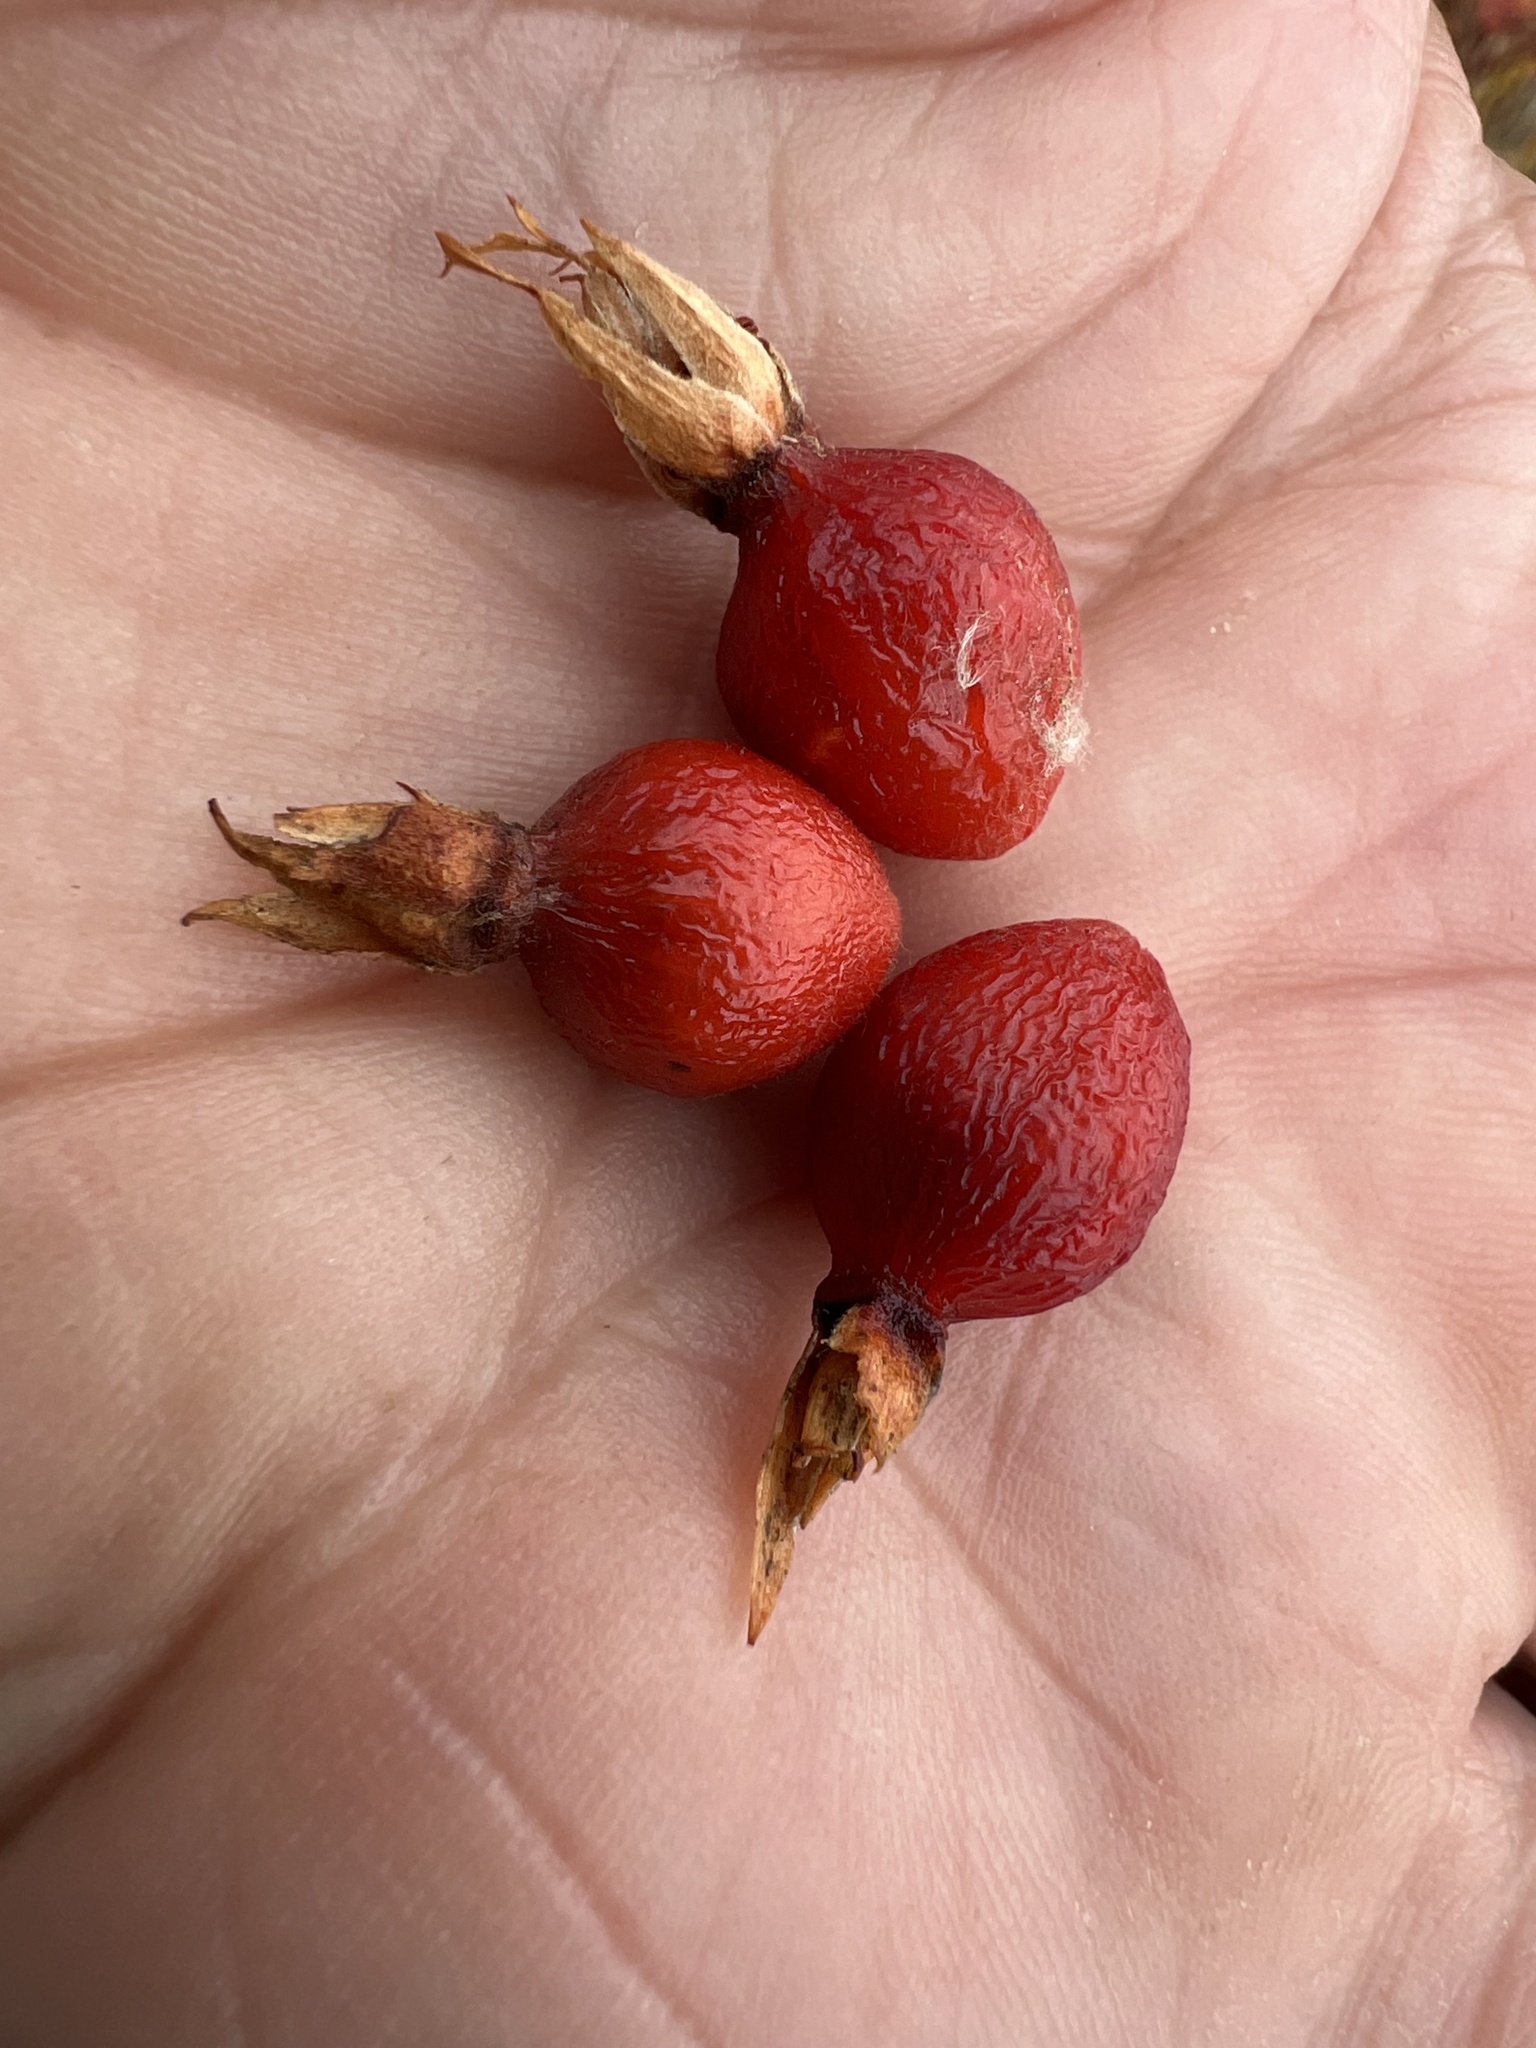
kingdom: Plantae
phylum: Tracheophyta
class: Magnoliopsida
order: Rosales
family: Rosaceae
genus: Rosa
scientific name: Rosa woodsii
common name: Woods's rose
